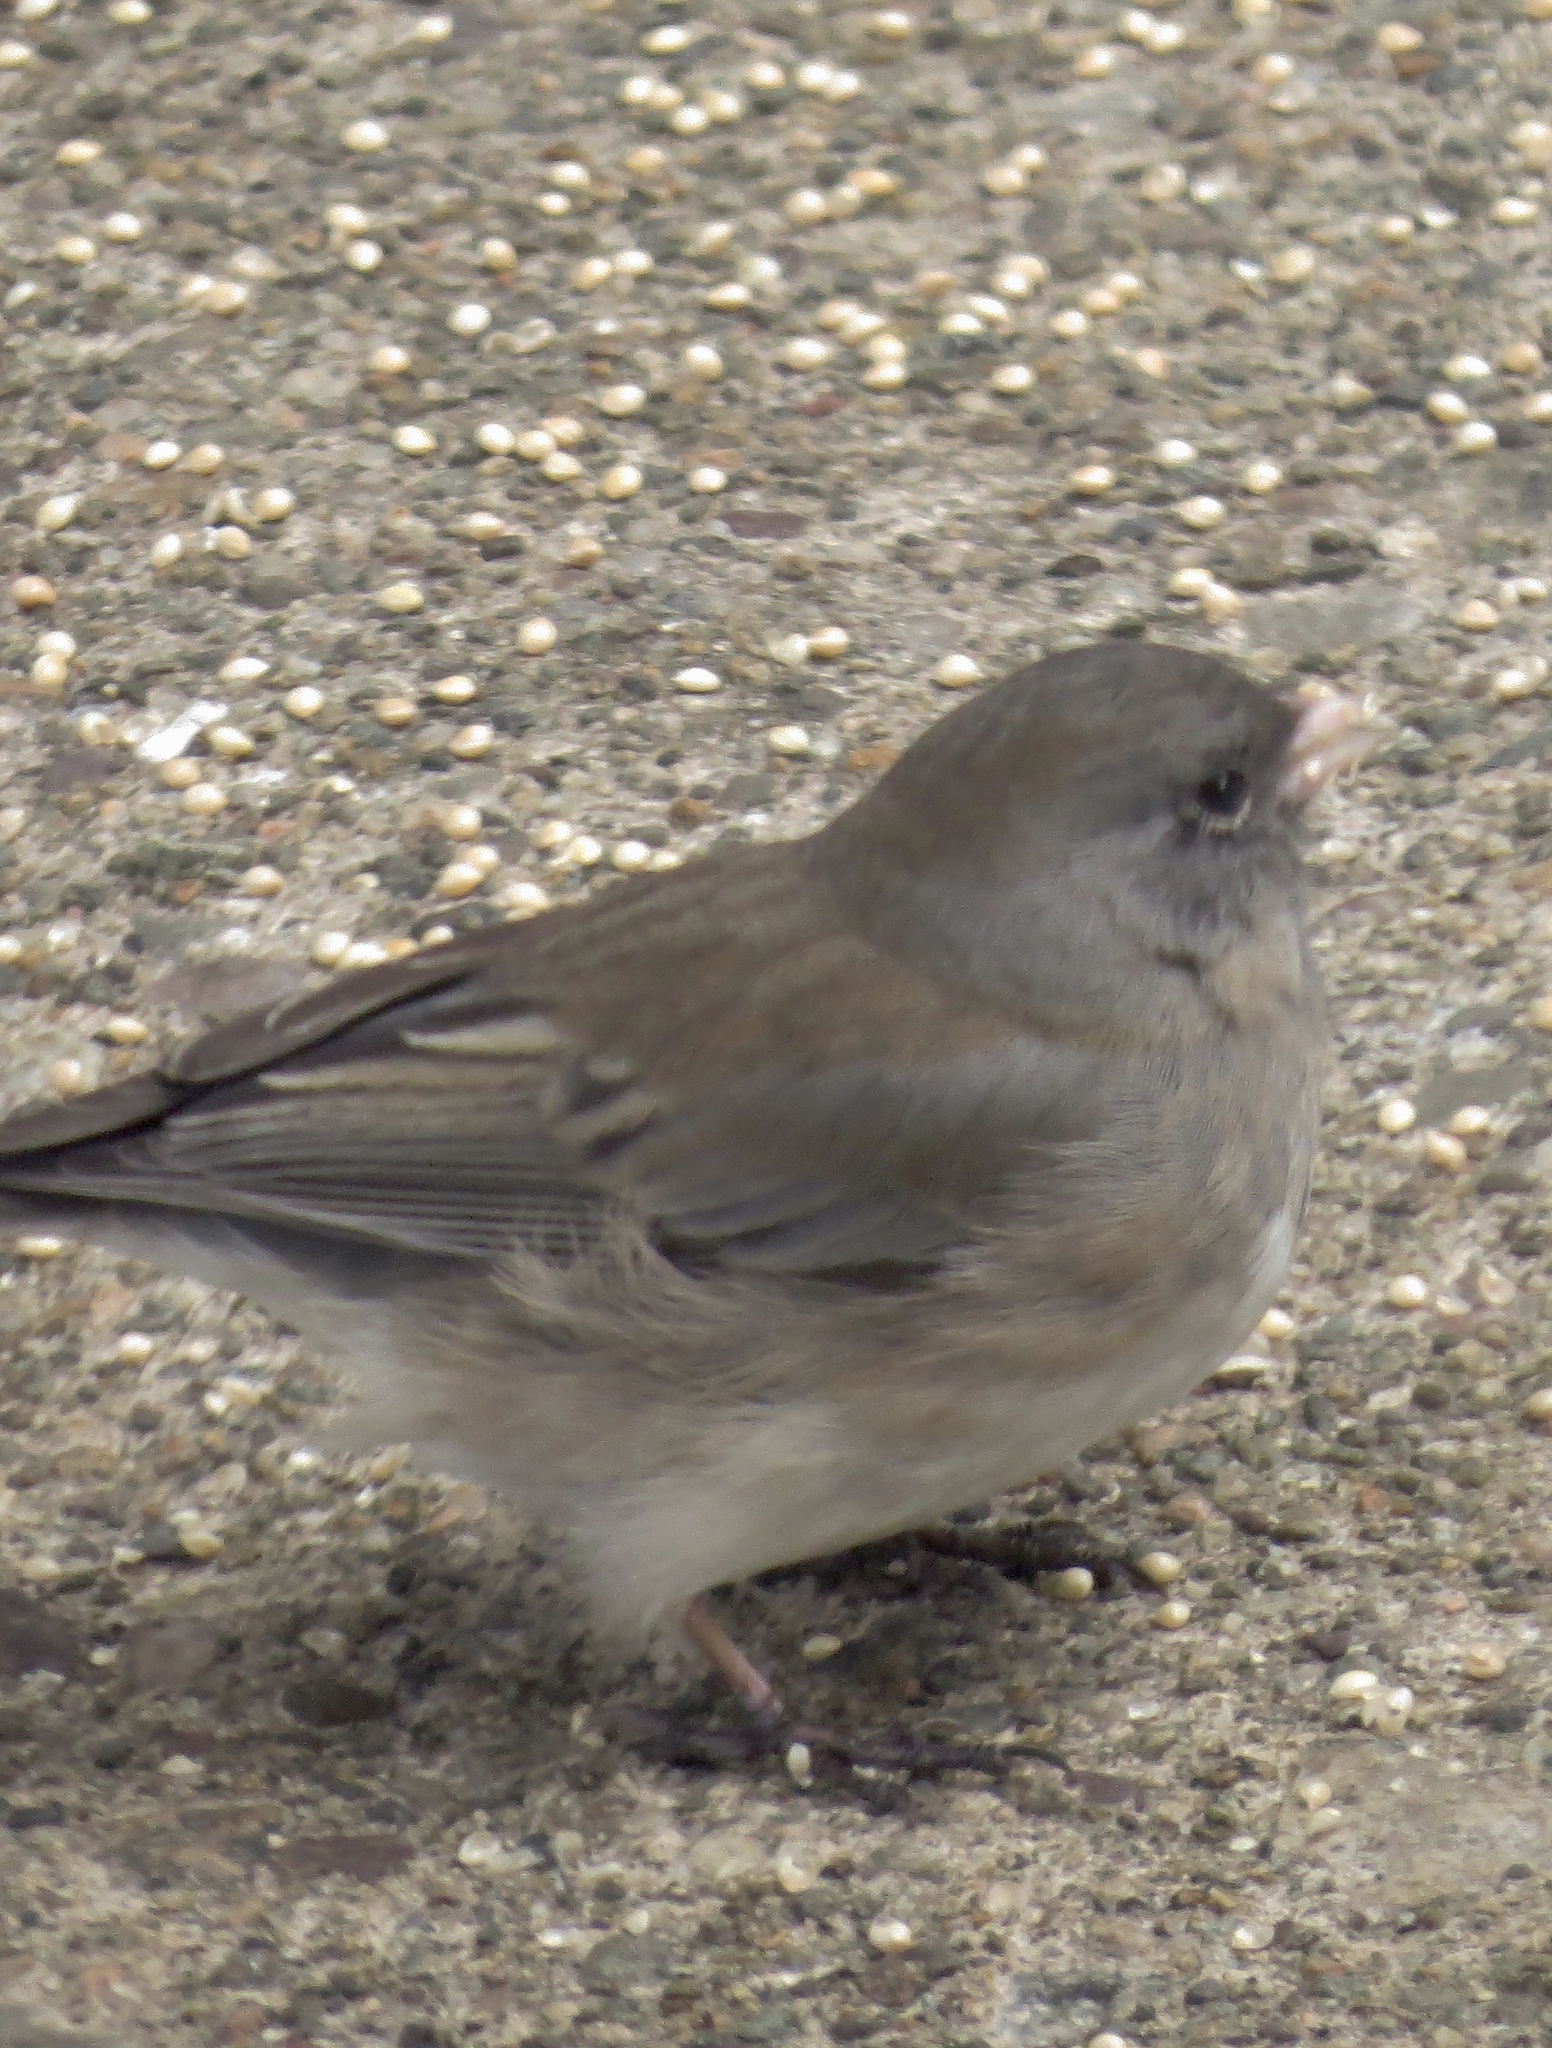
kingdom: Animalia
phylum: Chordata
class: Aves
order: Passeriformes
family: Passerellidae
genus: Junco
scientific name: Junco hyemalis
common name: Dark-eyed junco
